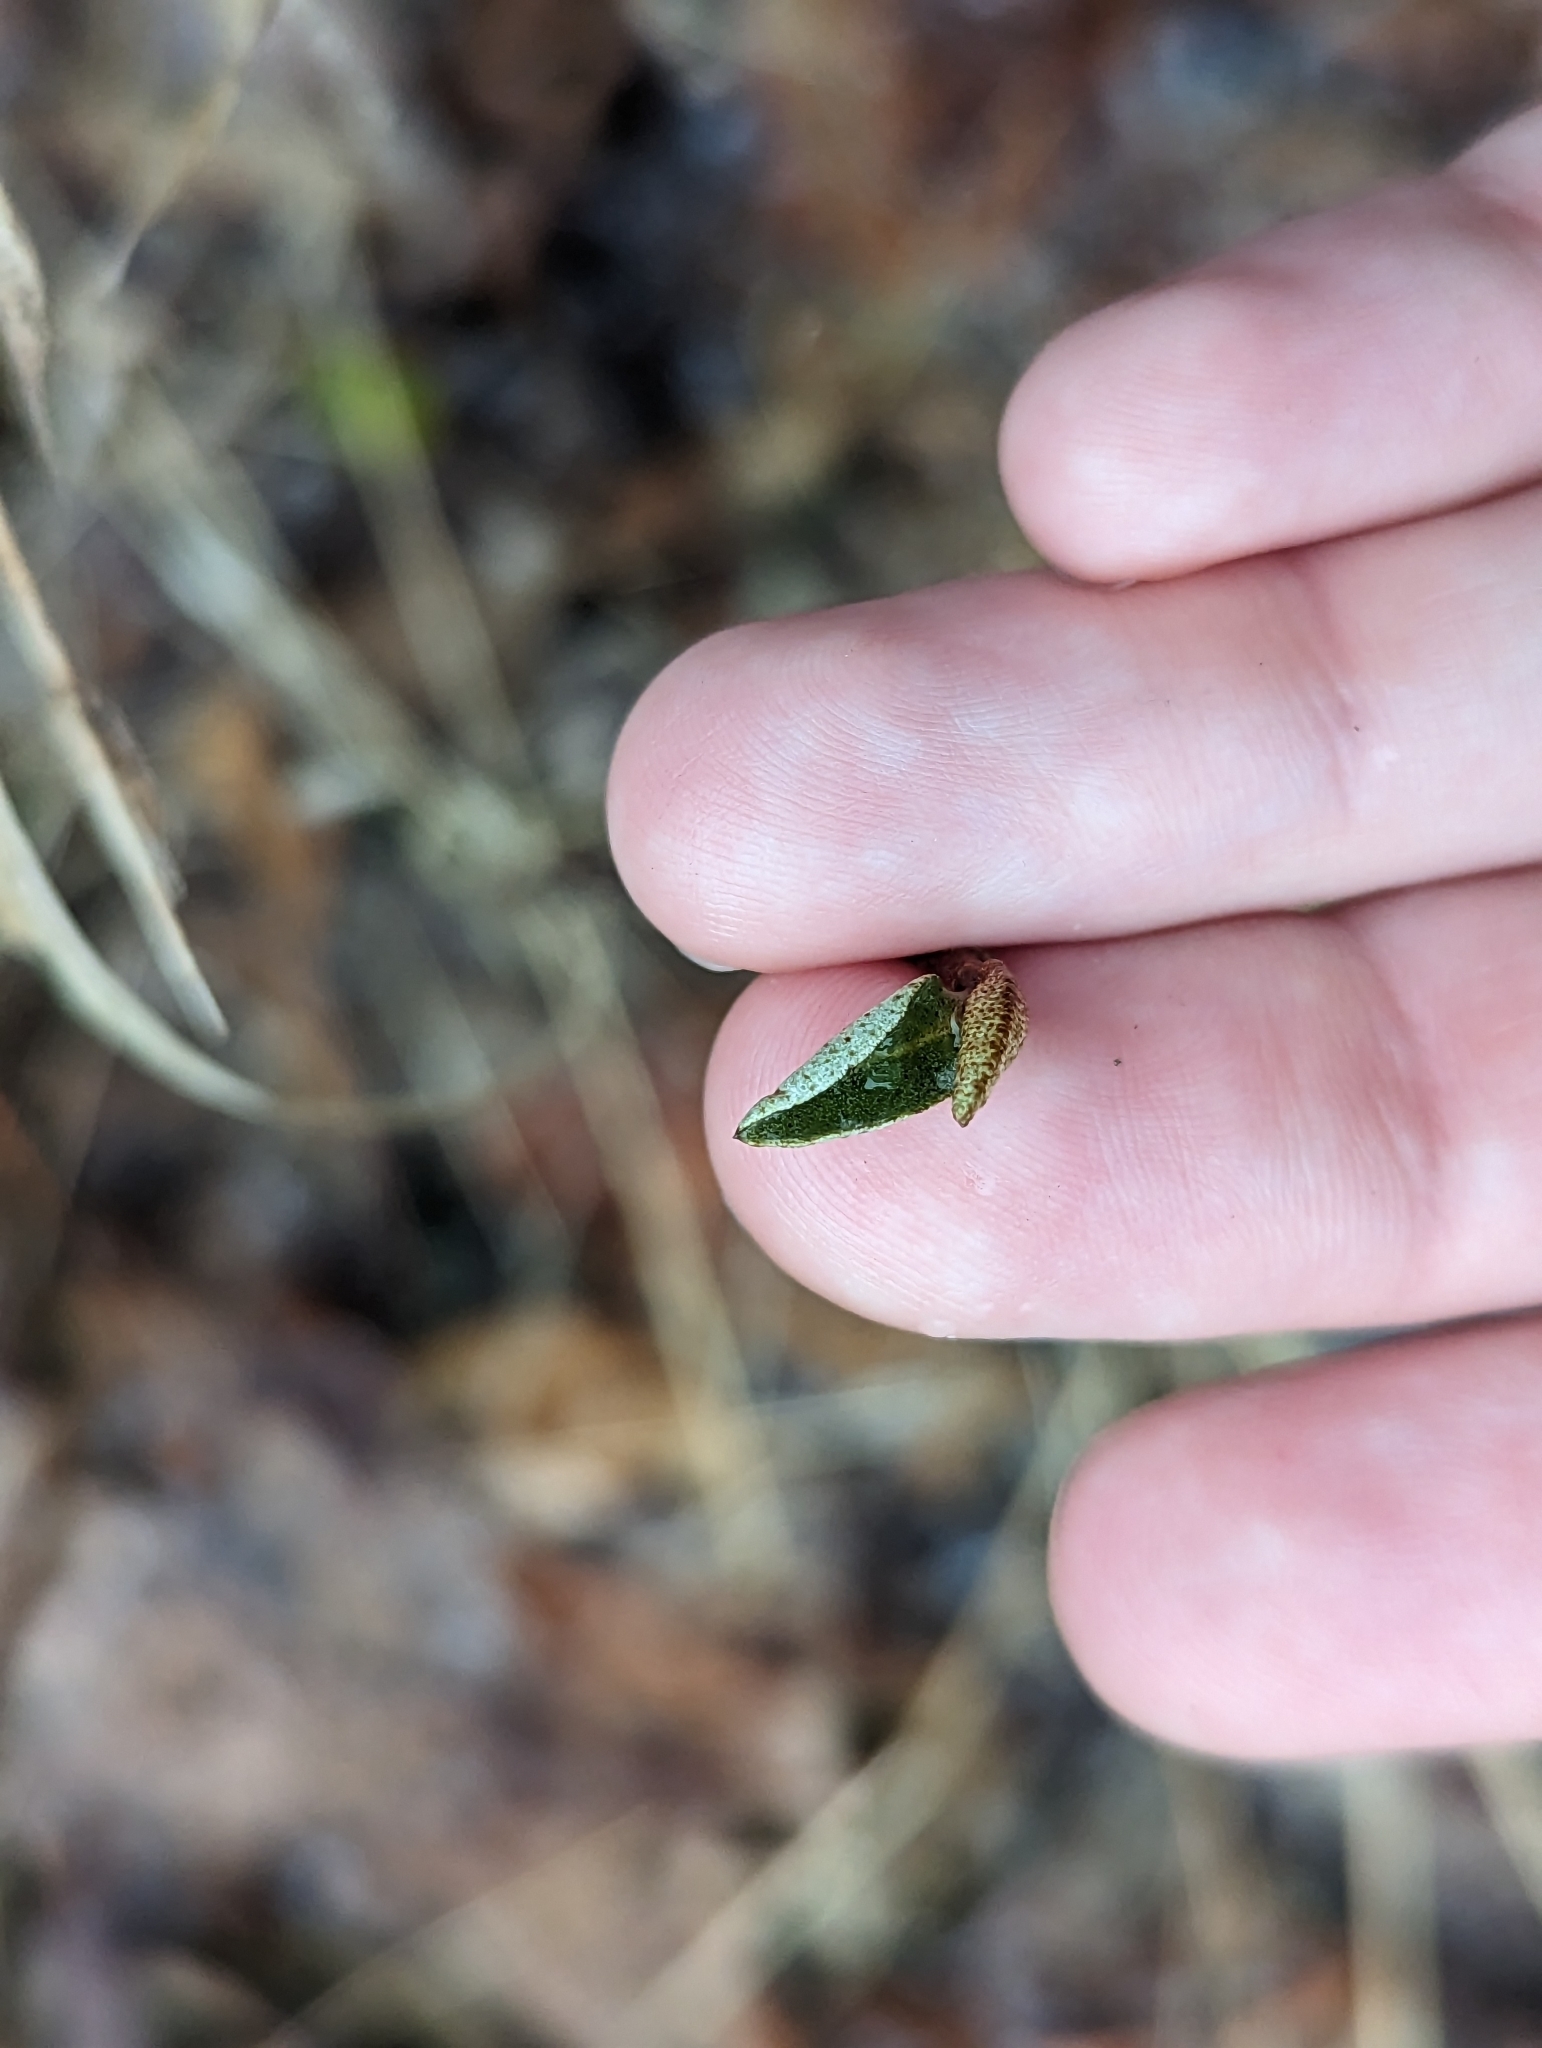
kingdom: Plantae
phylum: Tracheophyta
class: Magnoliopsida
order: Rosales
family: Elaeagnaceae
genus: Elaeagnus
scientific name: Elaeagnus umbellata
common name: Autumn olive
